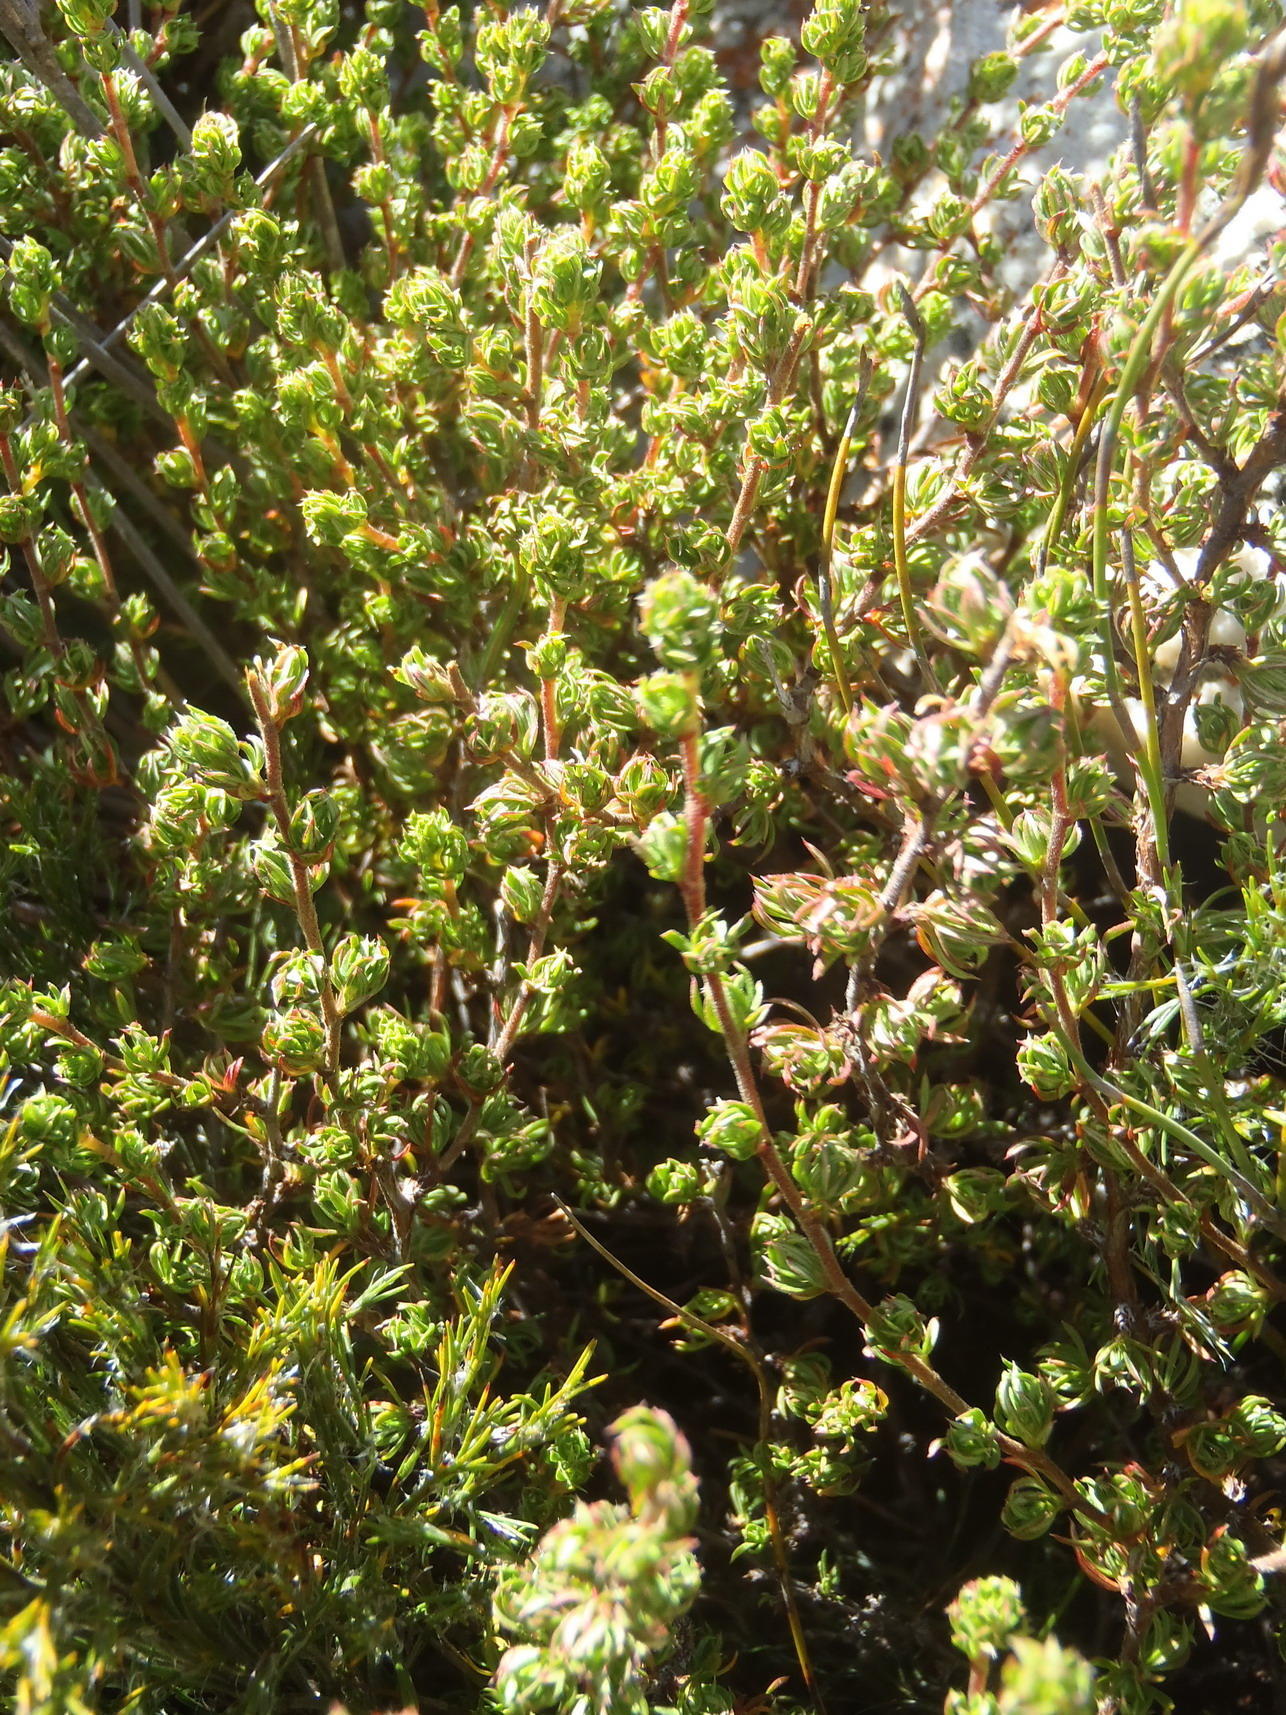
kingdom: Plantae
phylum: Tracheophyta
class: Magnoliopsida
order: Rosales
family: Rosaceae
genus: Cliffortia
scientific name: Cliffortia arcuata
